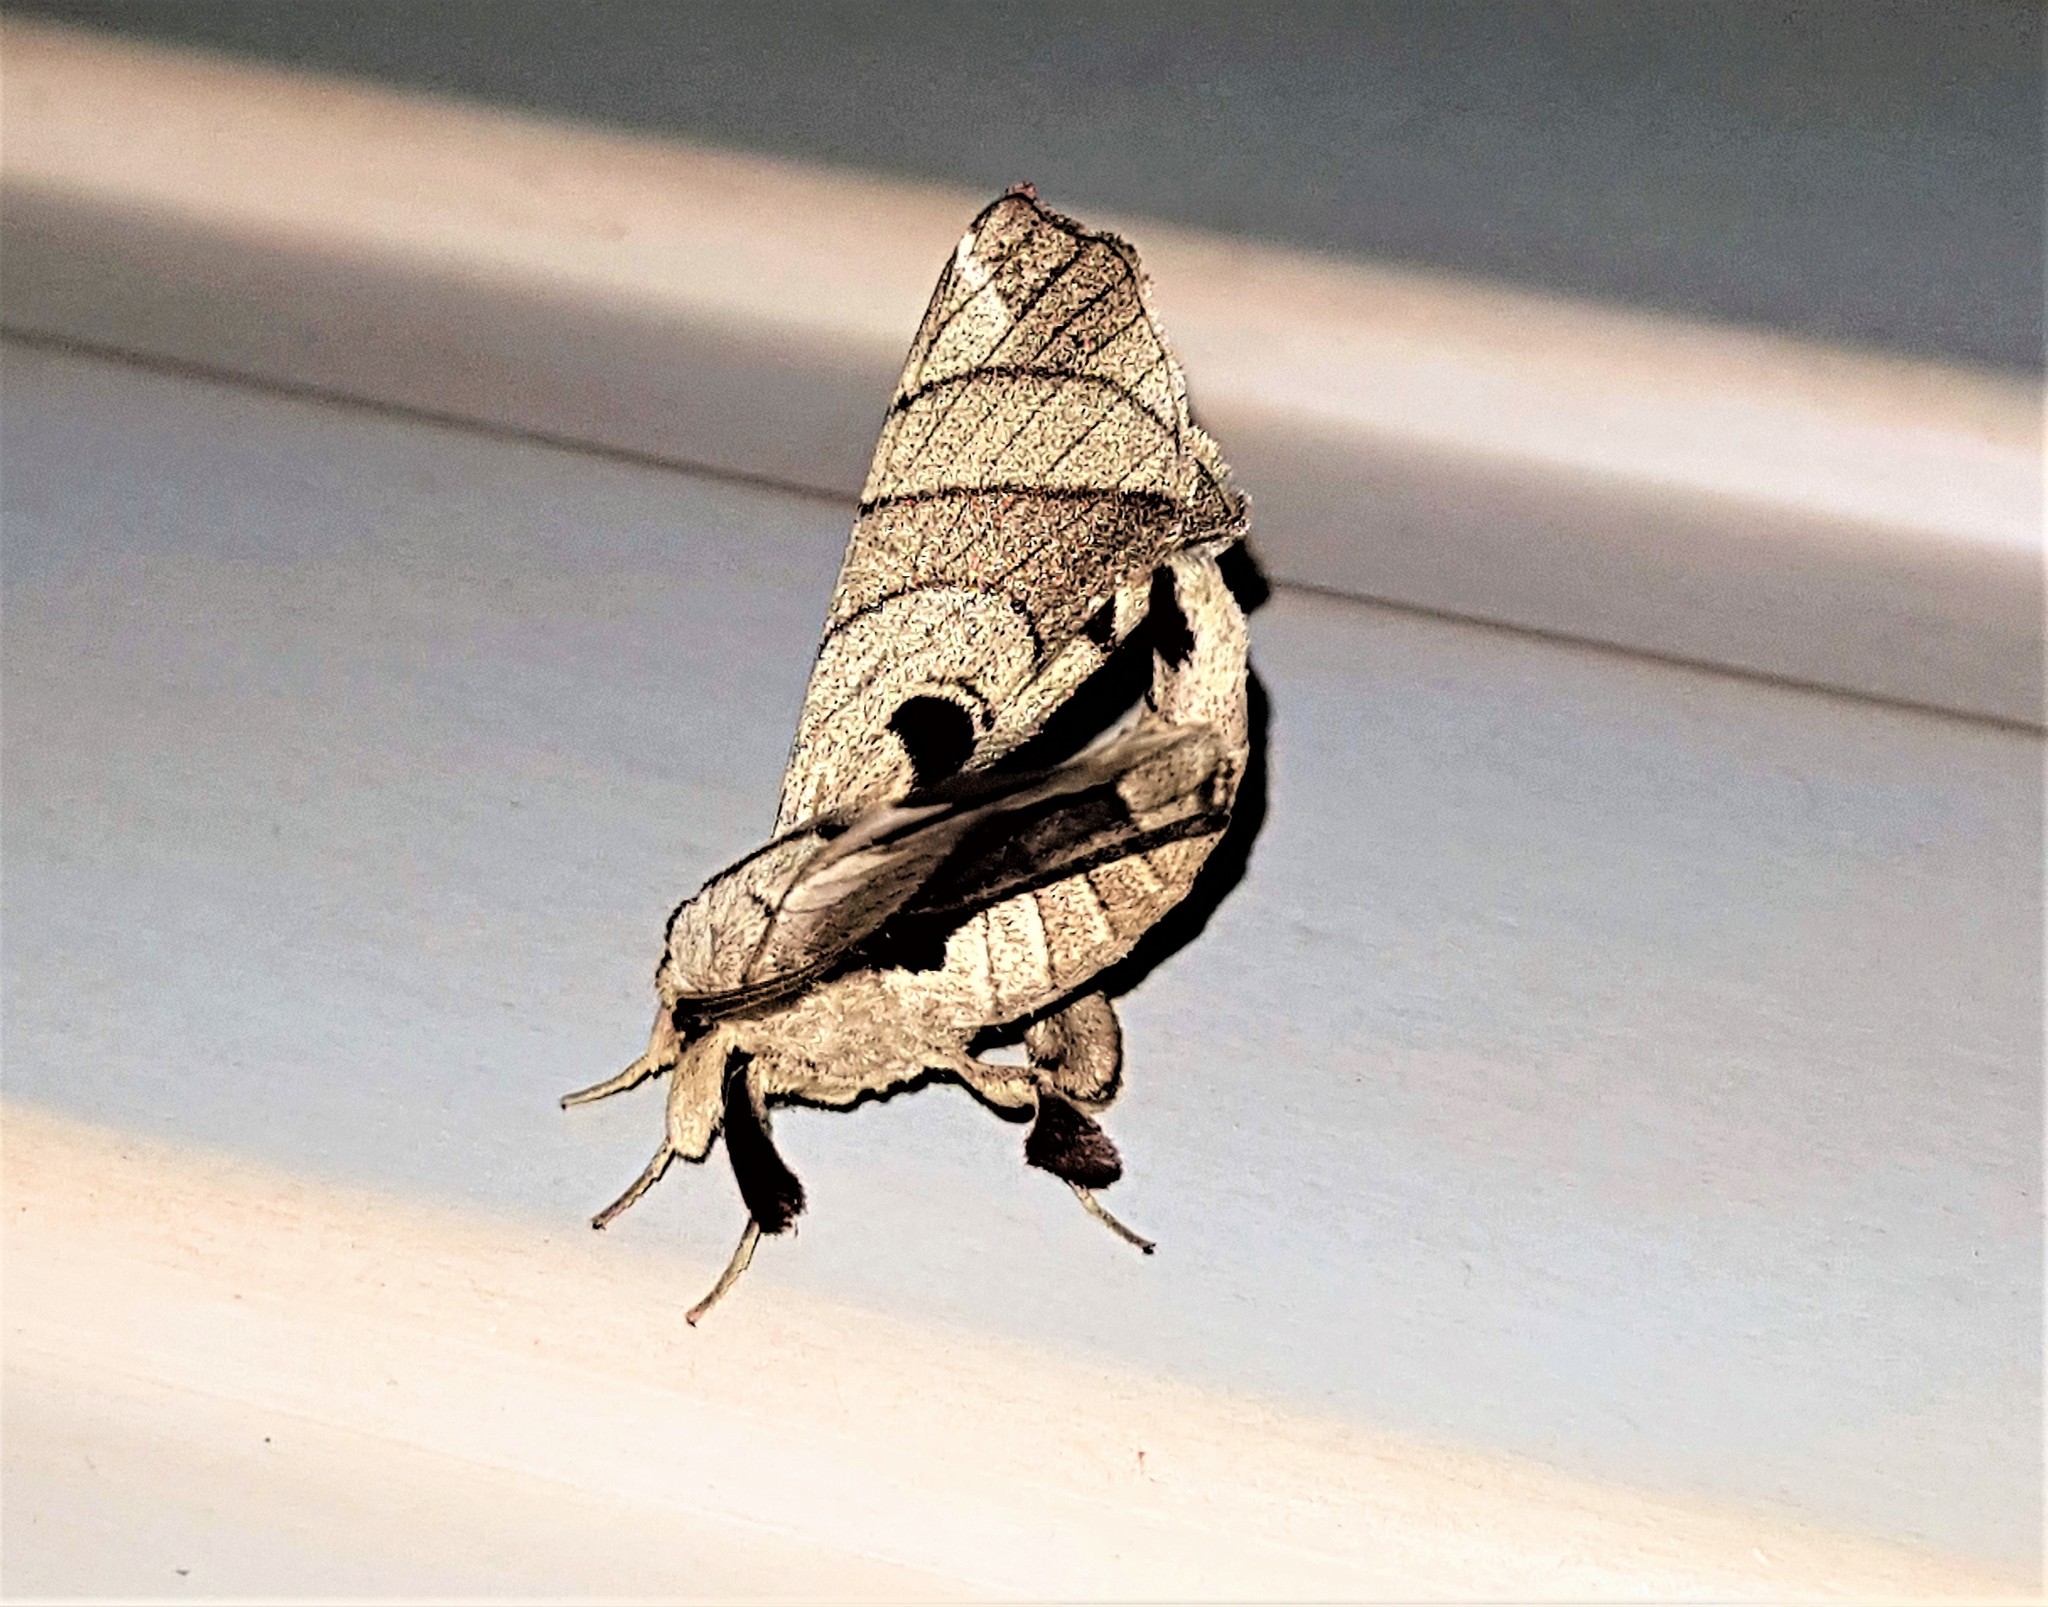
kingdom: Animalia
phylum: Arthropoda
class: Insecta
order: Lepidoptera
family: Apatelodidae
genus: Hygrochroa
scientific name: Hygrochroa firmiana
